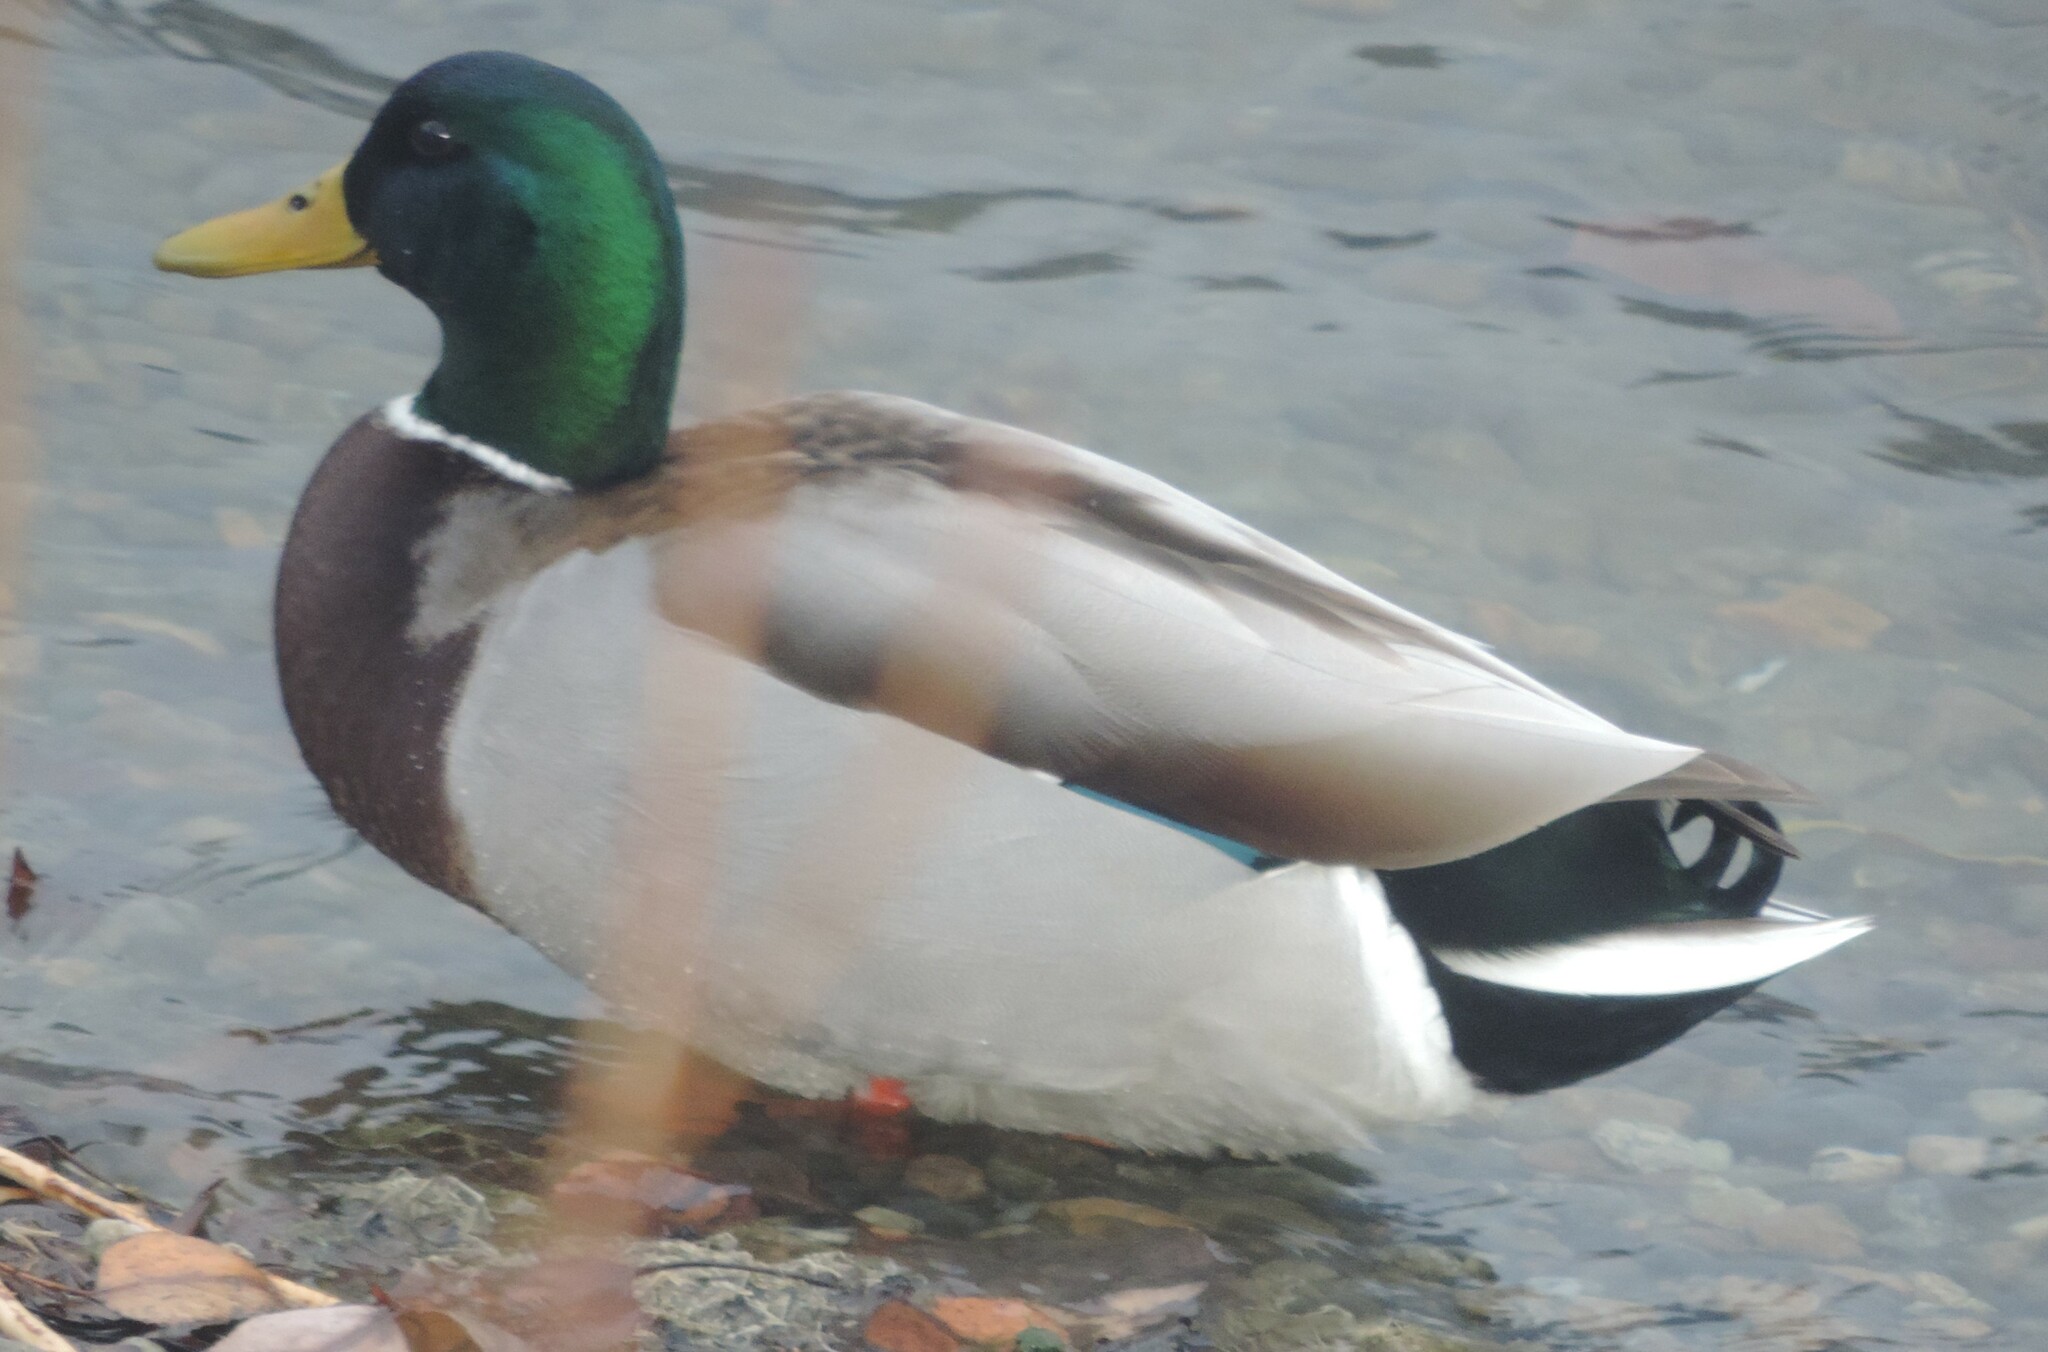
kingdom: Animalia
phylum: Chordata
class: Aves
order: Anseriformes
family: Anatidae
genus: Anas
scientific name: Anas platyrhynchos
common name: Mallard
